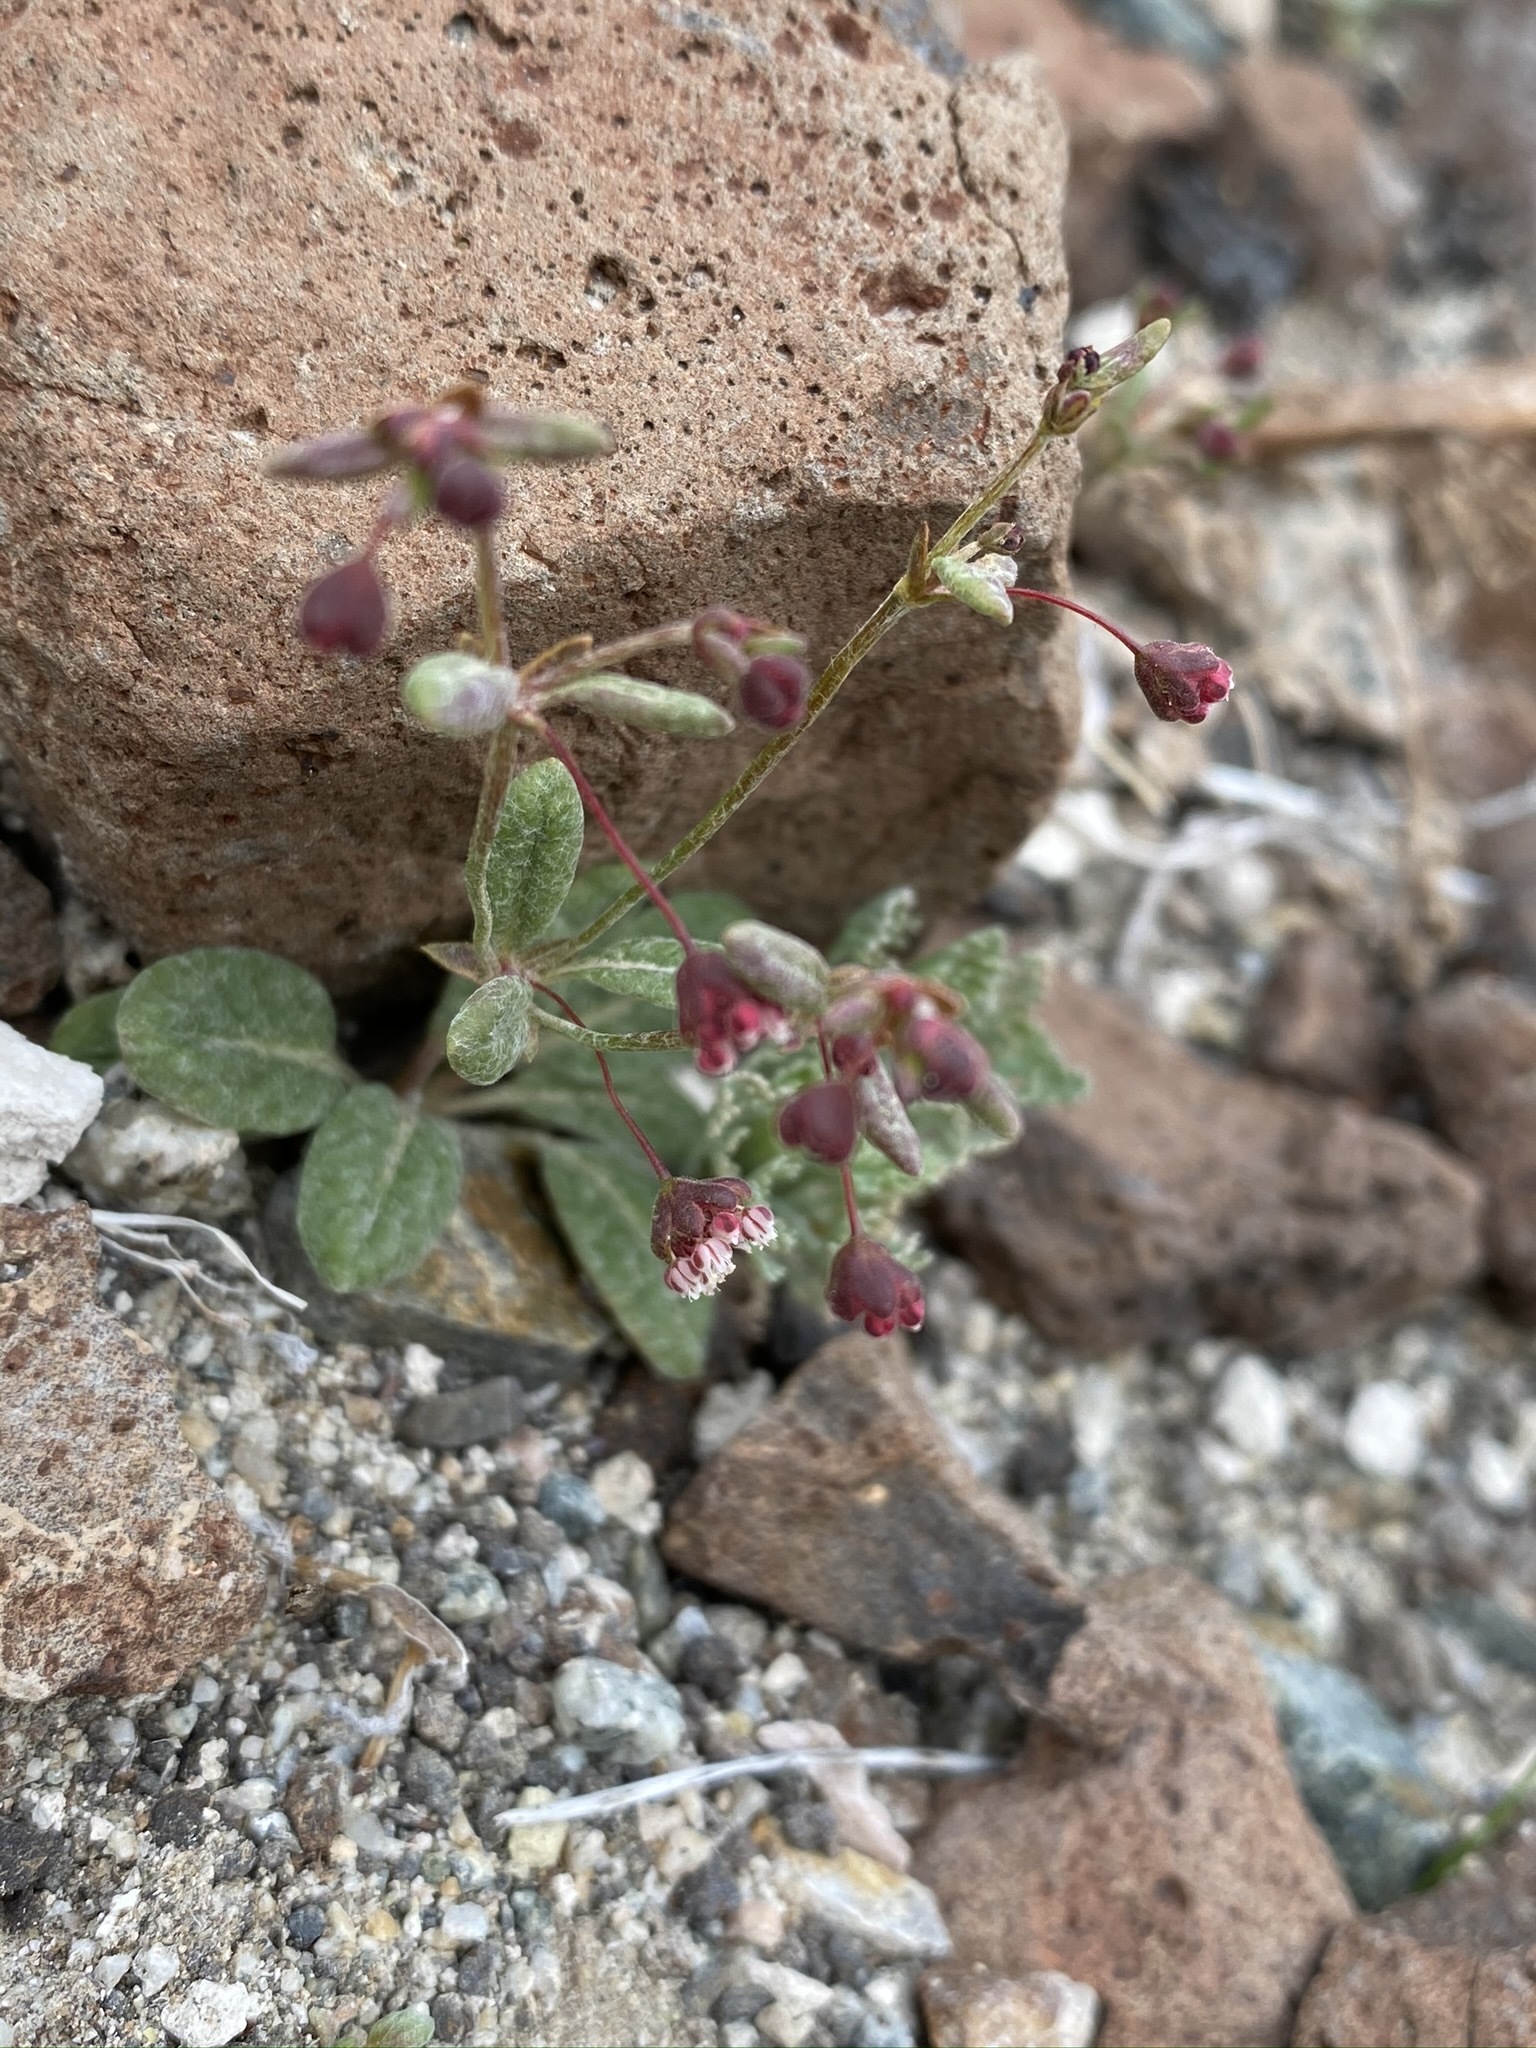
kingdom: Plantae
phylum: Tracheophyta
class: Magnoliopsida
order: Caryophyllales
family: Polygonaceae
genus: Eriogonum
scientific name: Eriogonum maculatum
